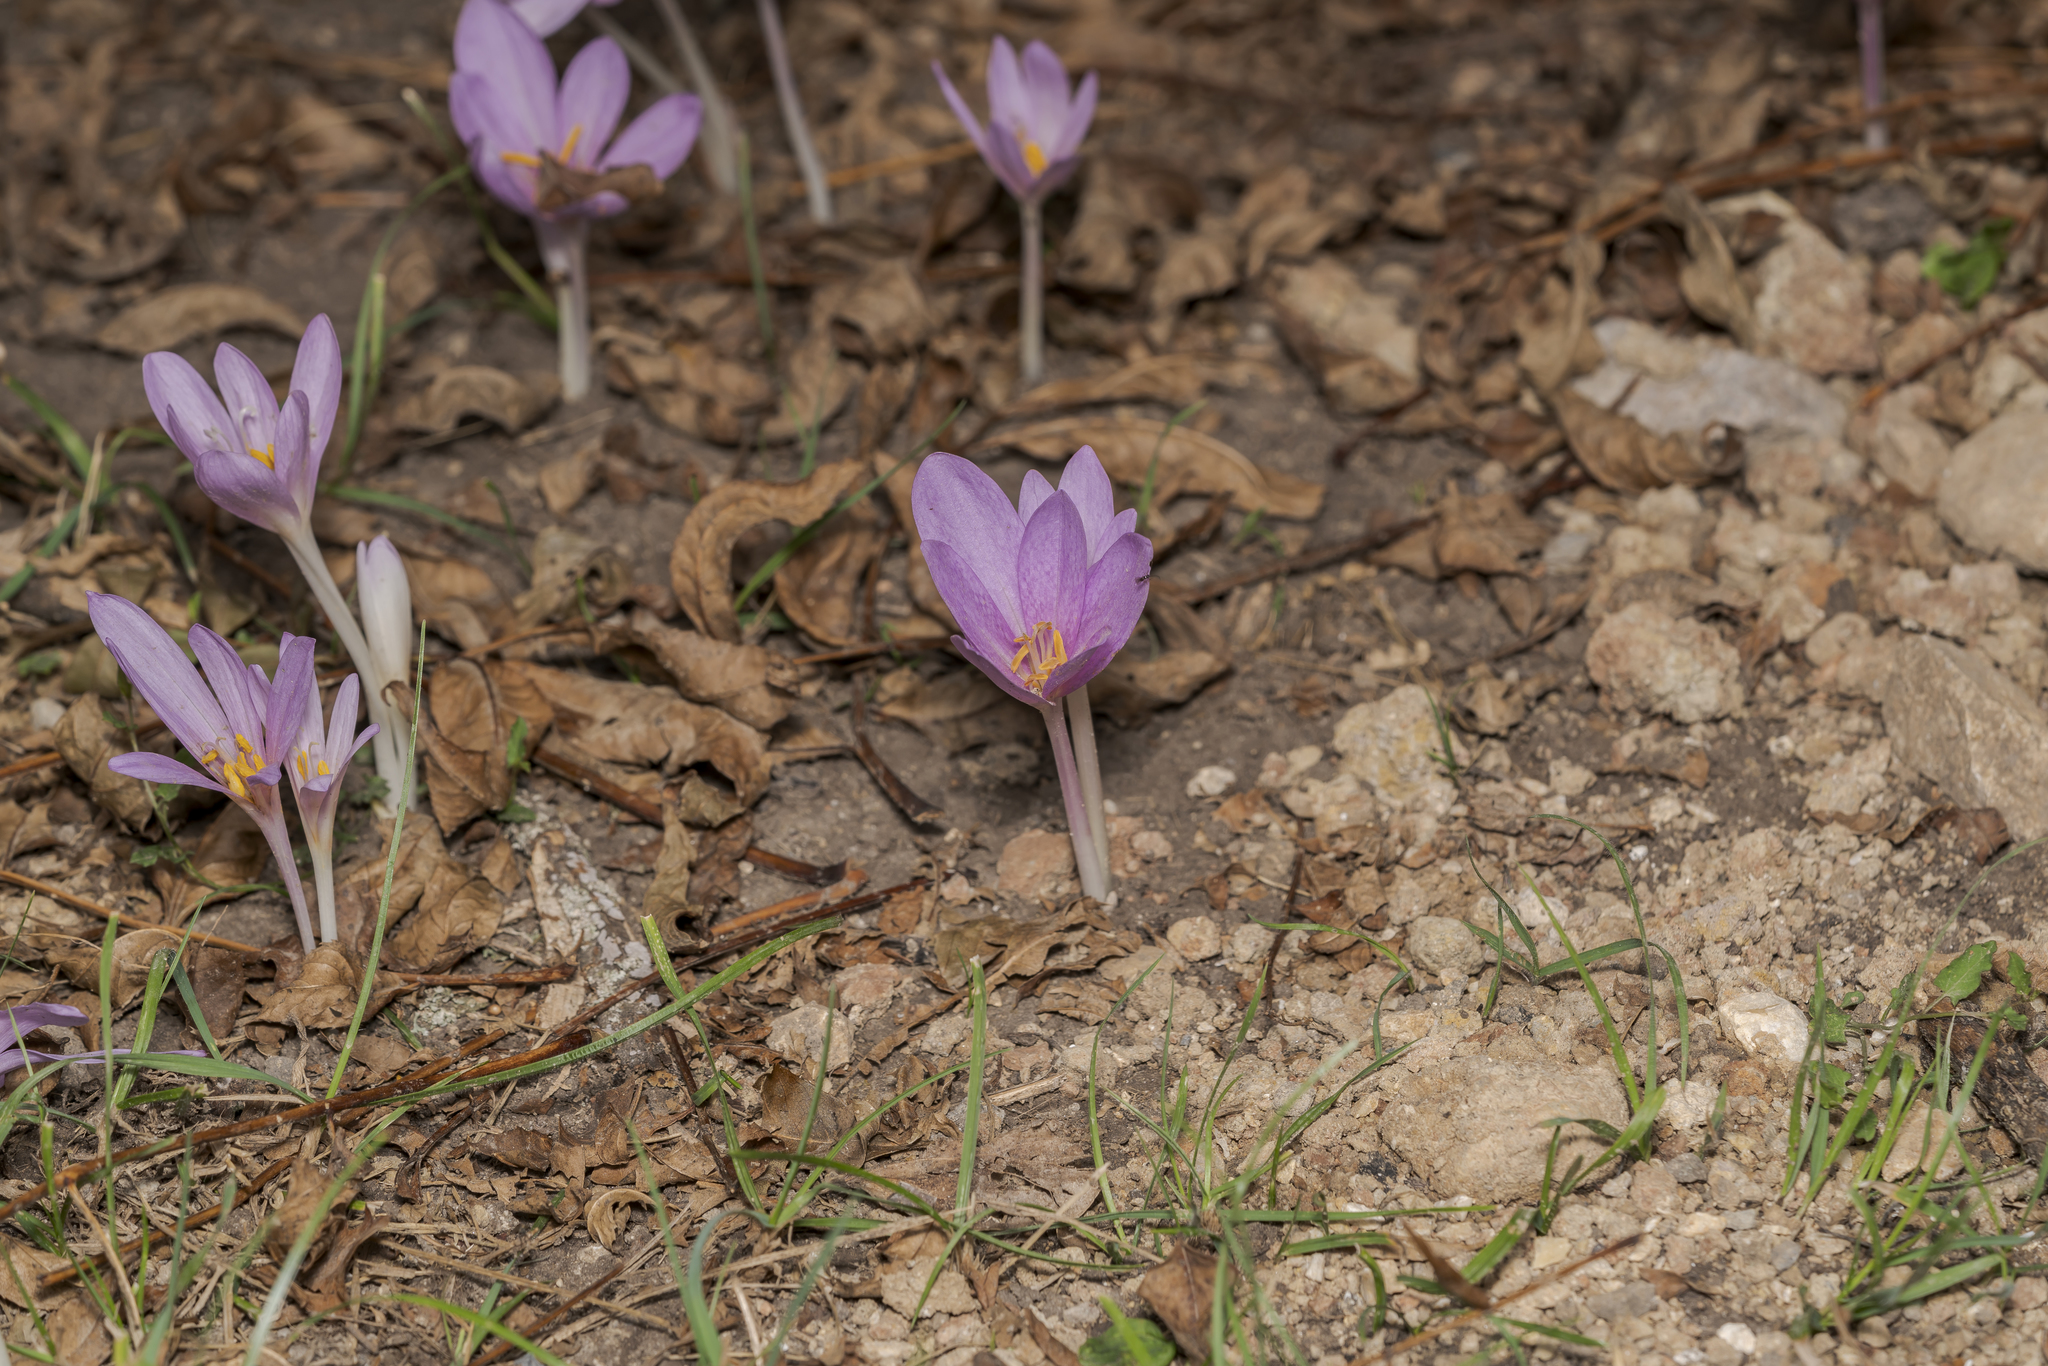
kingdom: Plantae
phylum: Tracheophyta
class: Liliopsida
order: Liliales
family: Colchicaceae
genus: Colchicum
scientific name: Colchicum autumnale
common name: Autumn crocus
